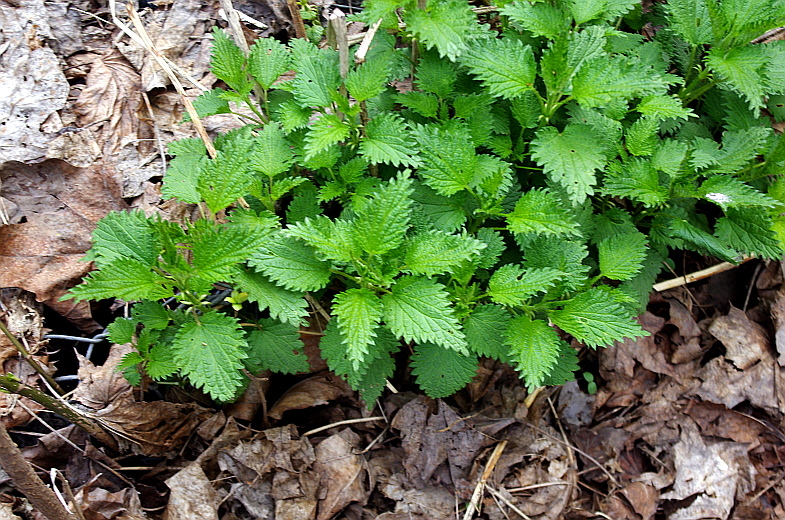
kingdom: Plantae
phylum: Tracheophyta
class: Magnoliopsida
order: Rosales
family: Urticaceae
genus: Urtica
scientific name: Urtica dioica
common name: Common nettle
